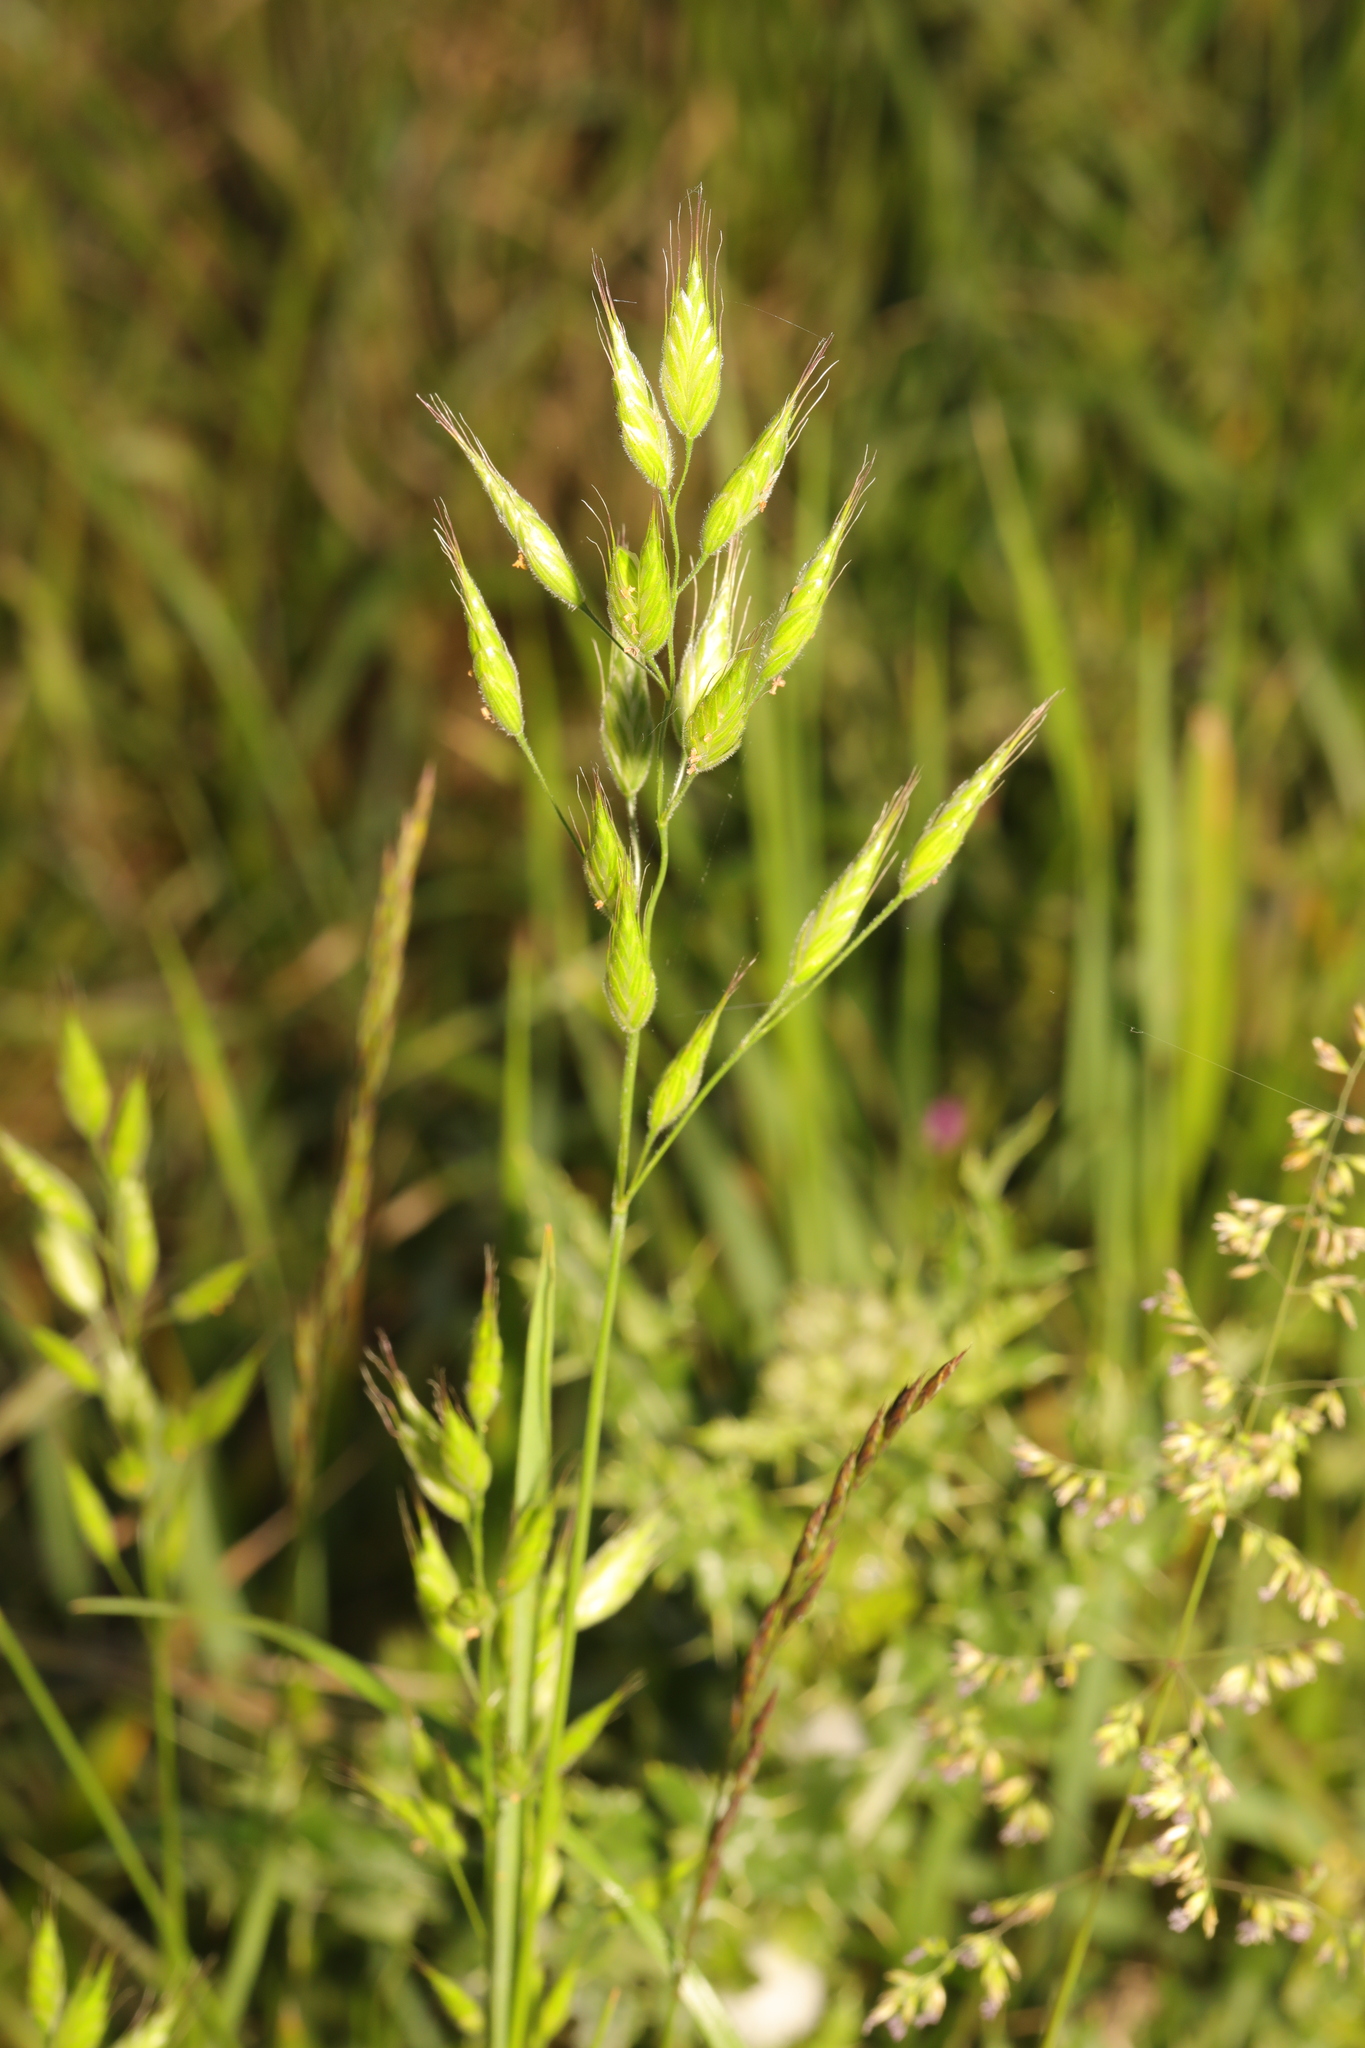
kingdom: Plantae
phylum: Tracheophyta
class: Liliopsida
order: Poales
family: Poaceae
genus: Bromus
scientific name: Bromus hordeaceus
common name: Soft brome
